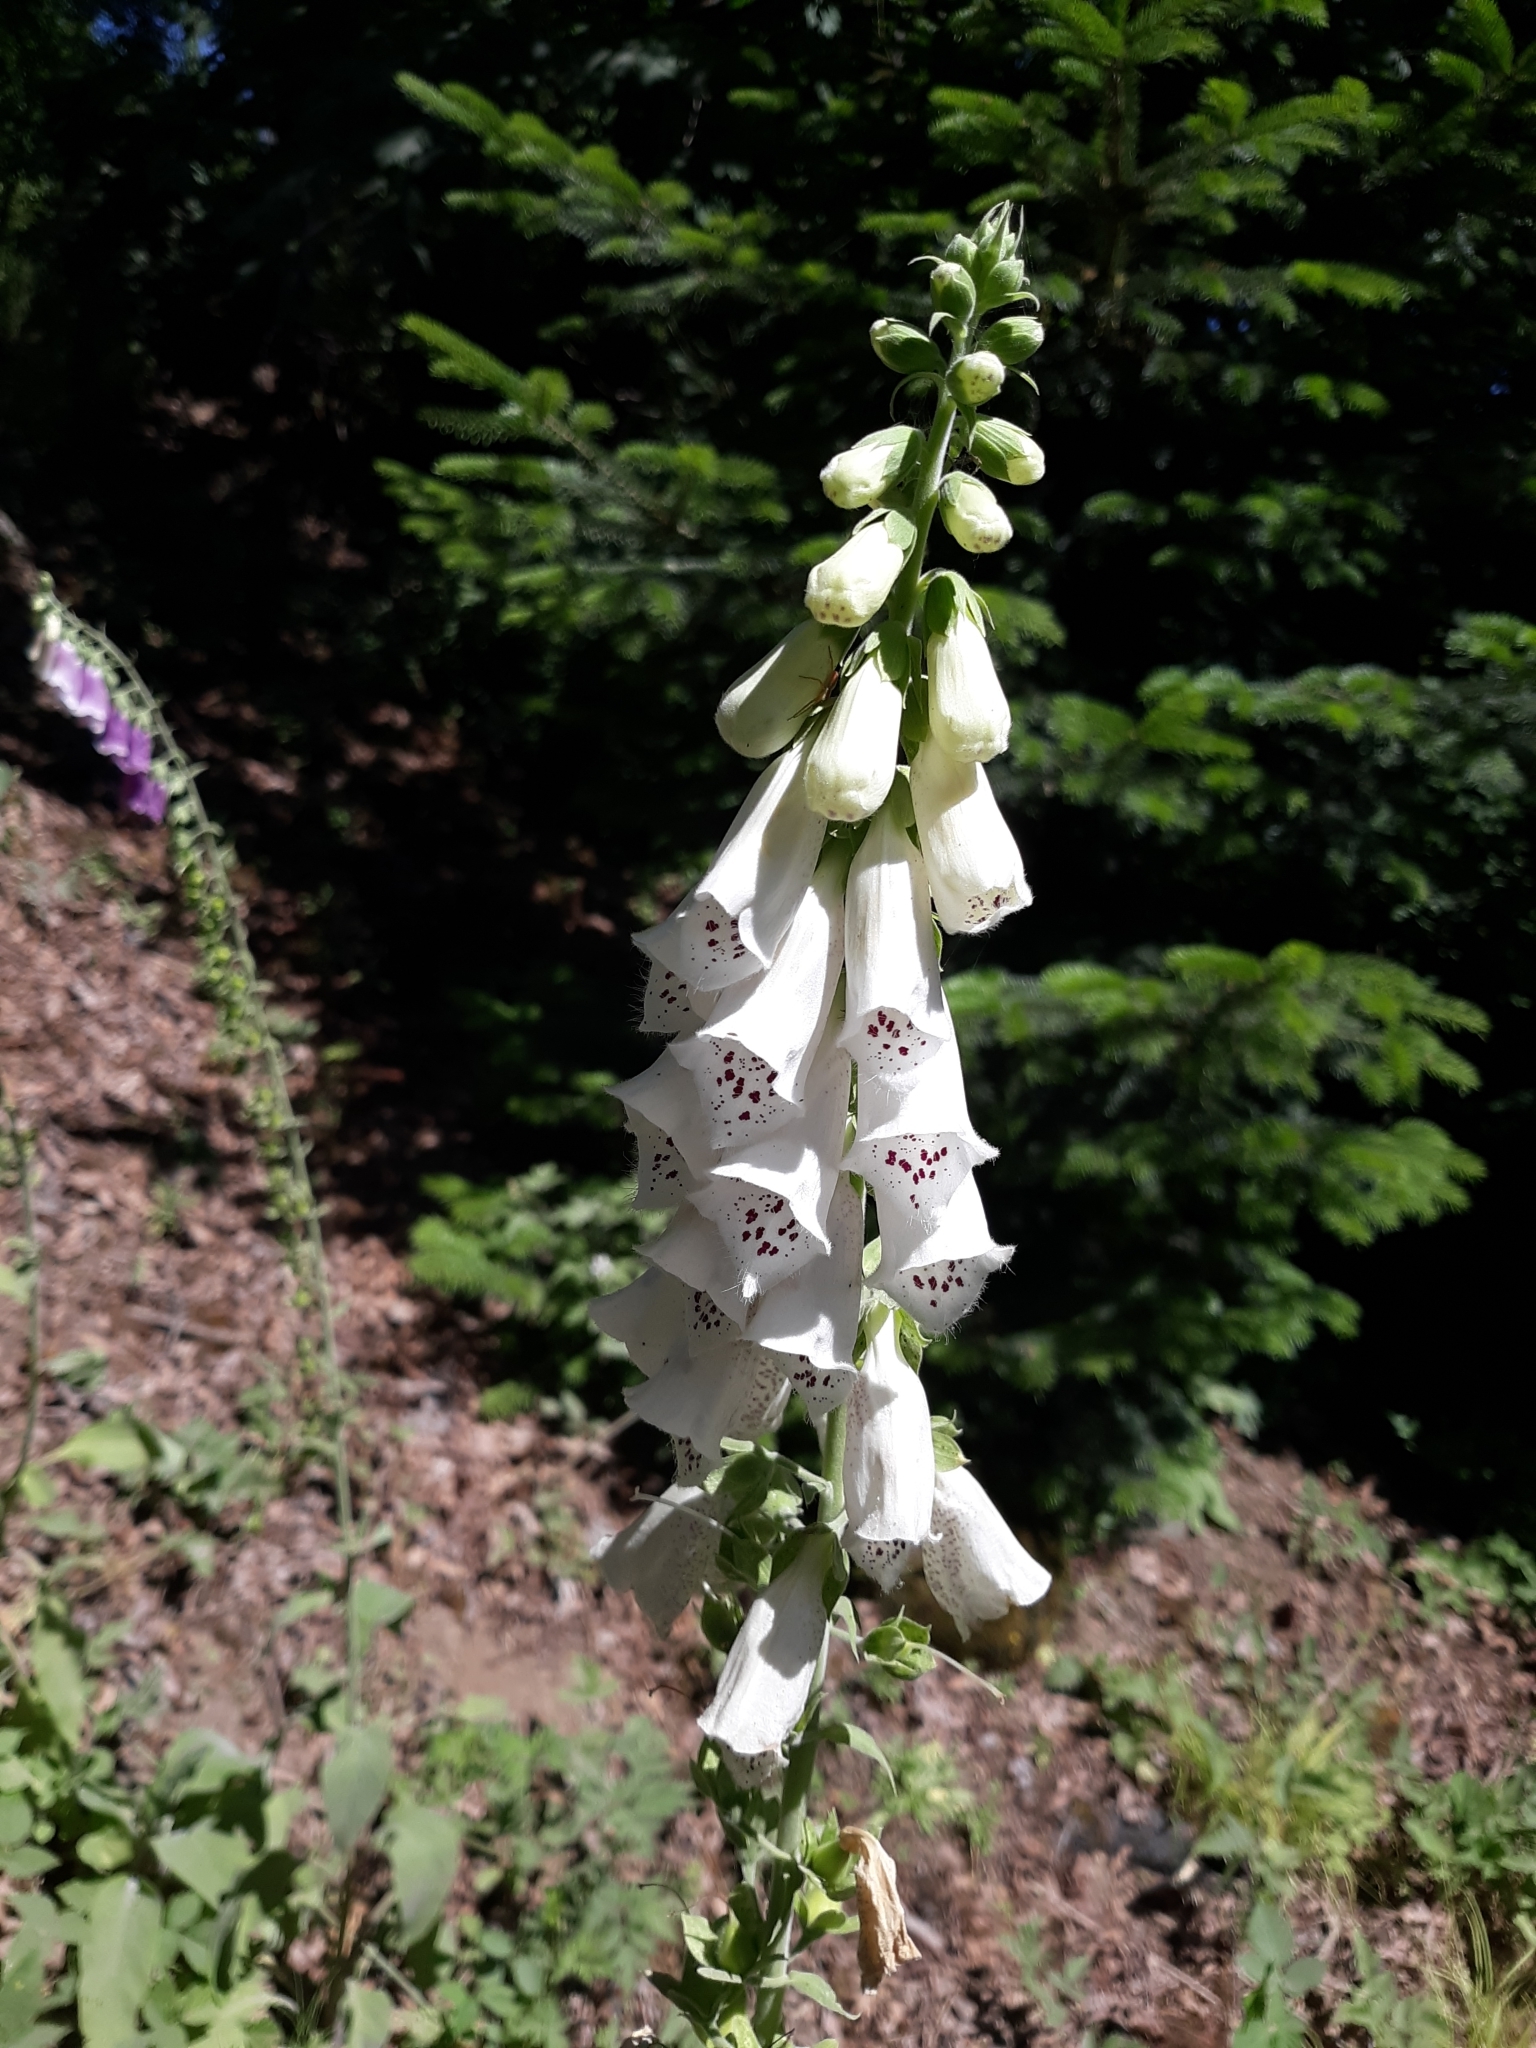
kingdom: Plantae
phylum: Tracheophyta
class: Magnoliopsida
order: Lamiales
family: Plantaginaceae
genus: Digitalis
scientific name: Digitalis purpurea
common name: Foxglove
